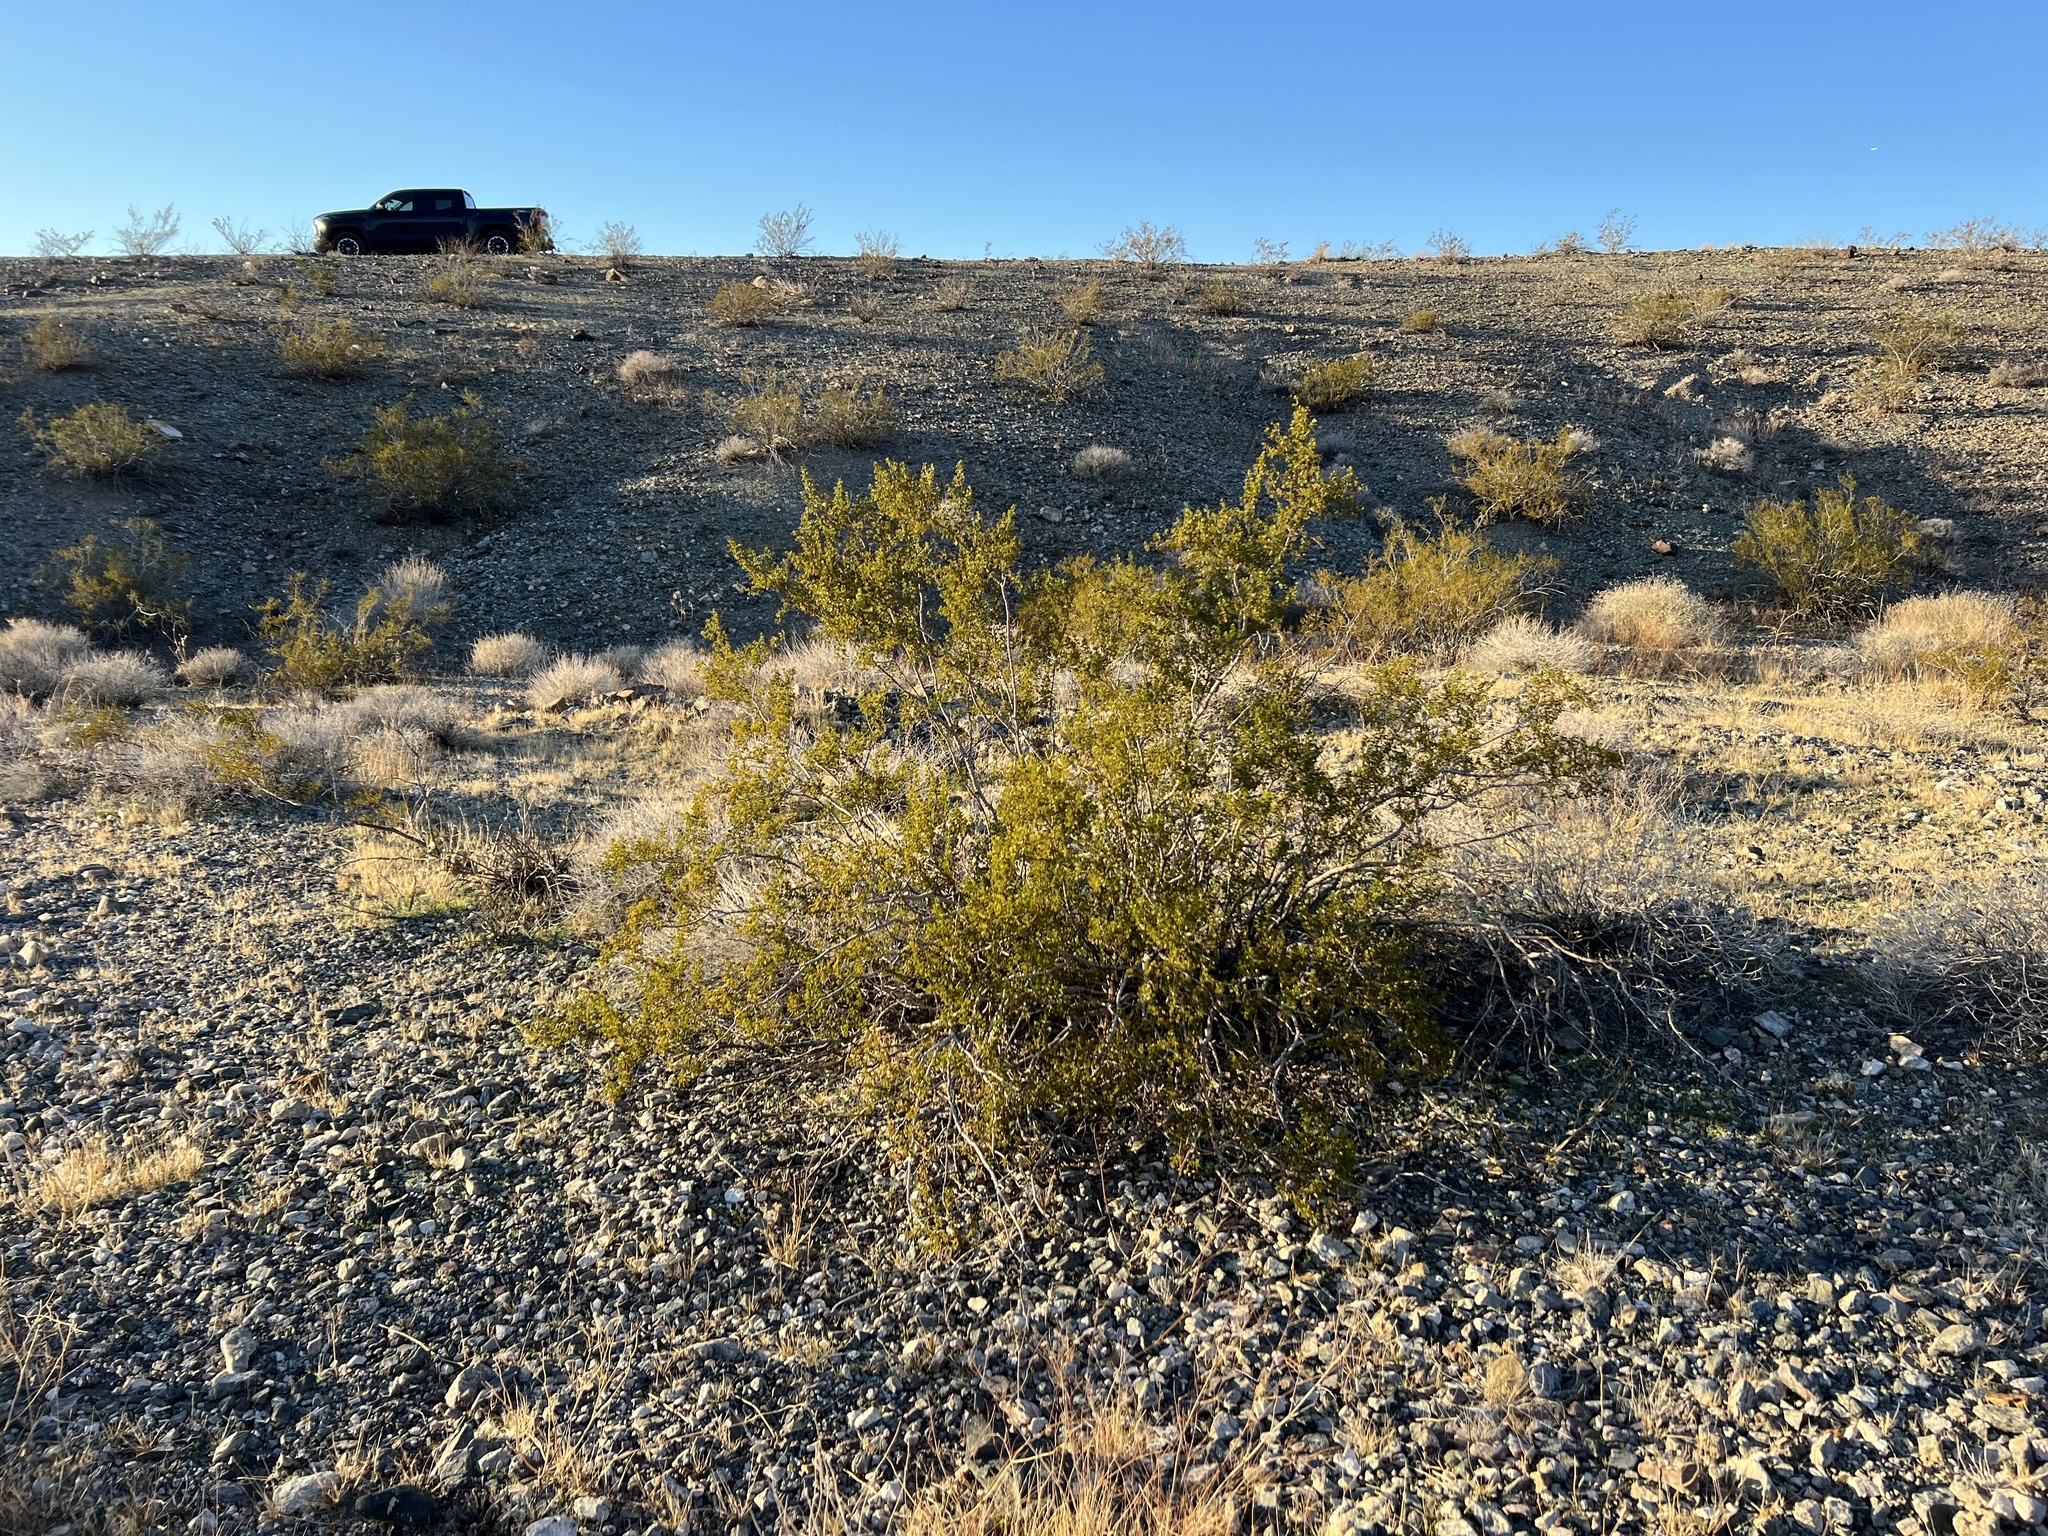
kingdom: Plantae
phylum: Tracheophyta
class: Magnoliopsida
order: Zygophyllales
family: Zygophyllaceae
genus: Larrea
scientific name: Larrea tridentata
